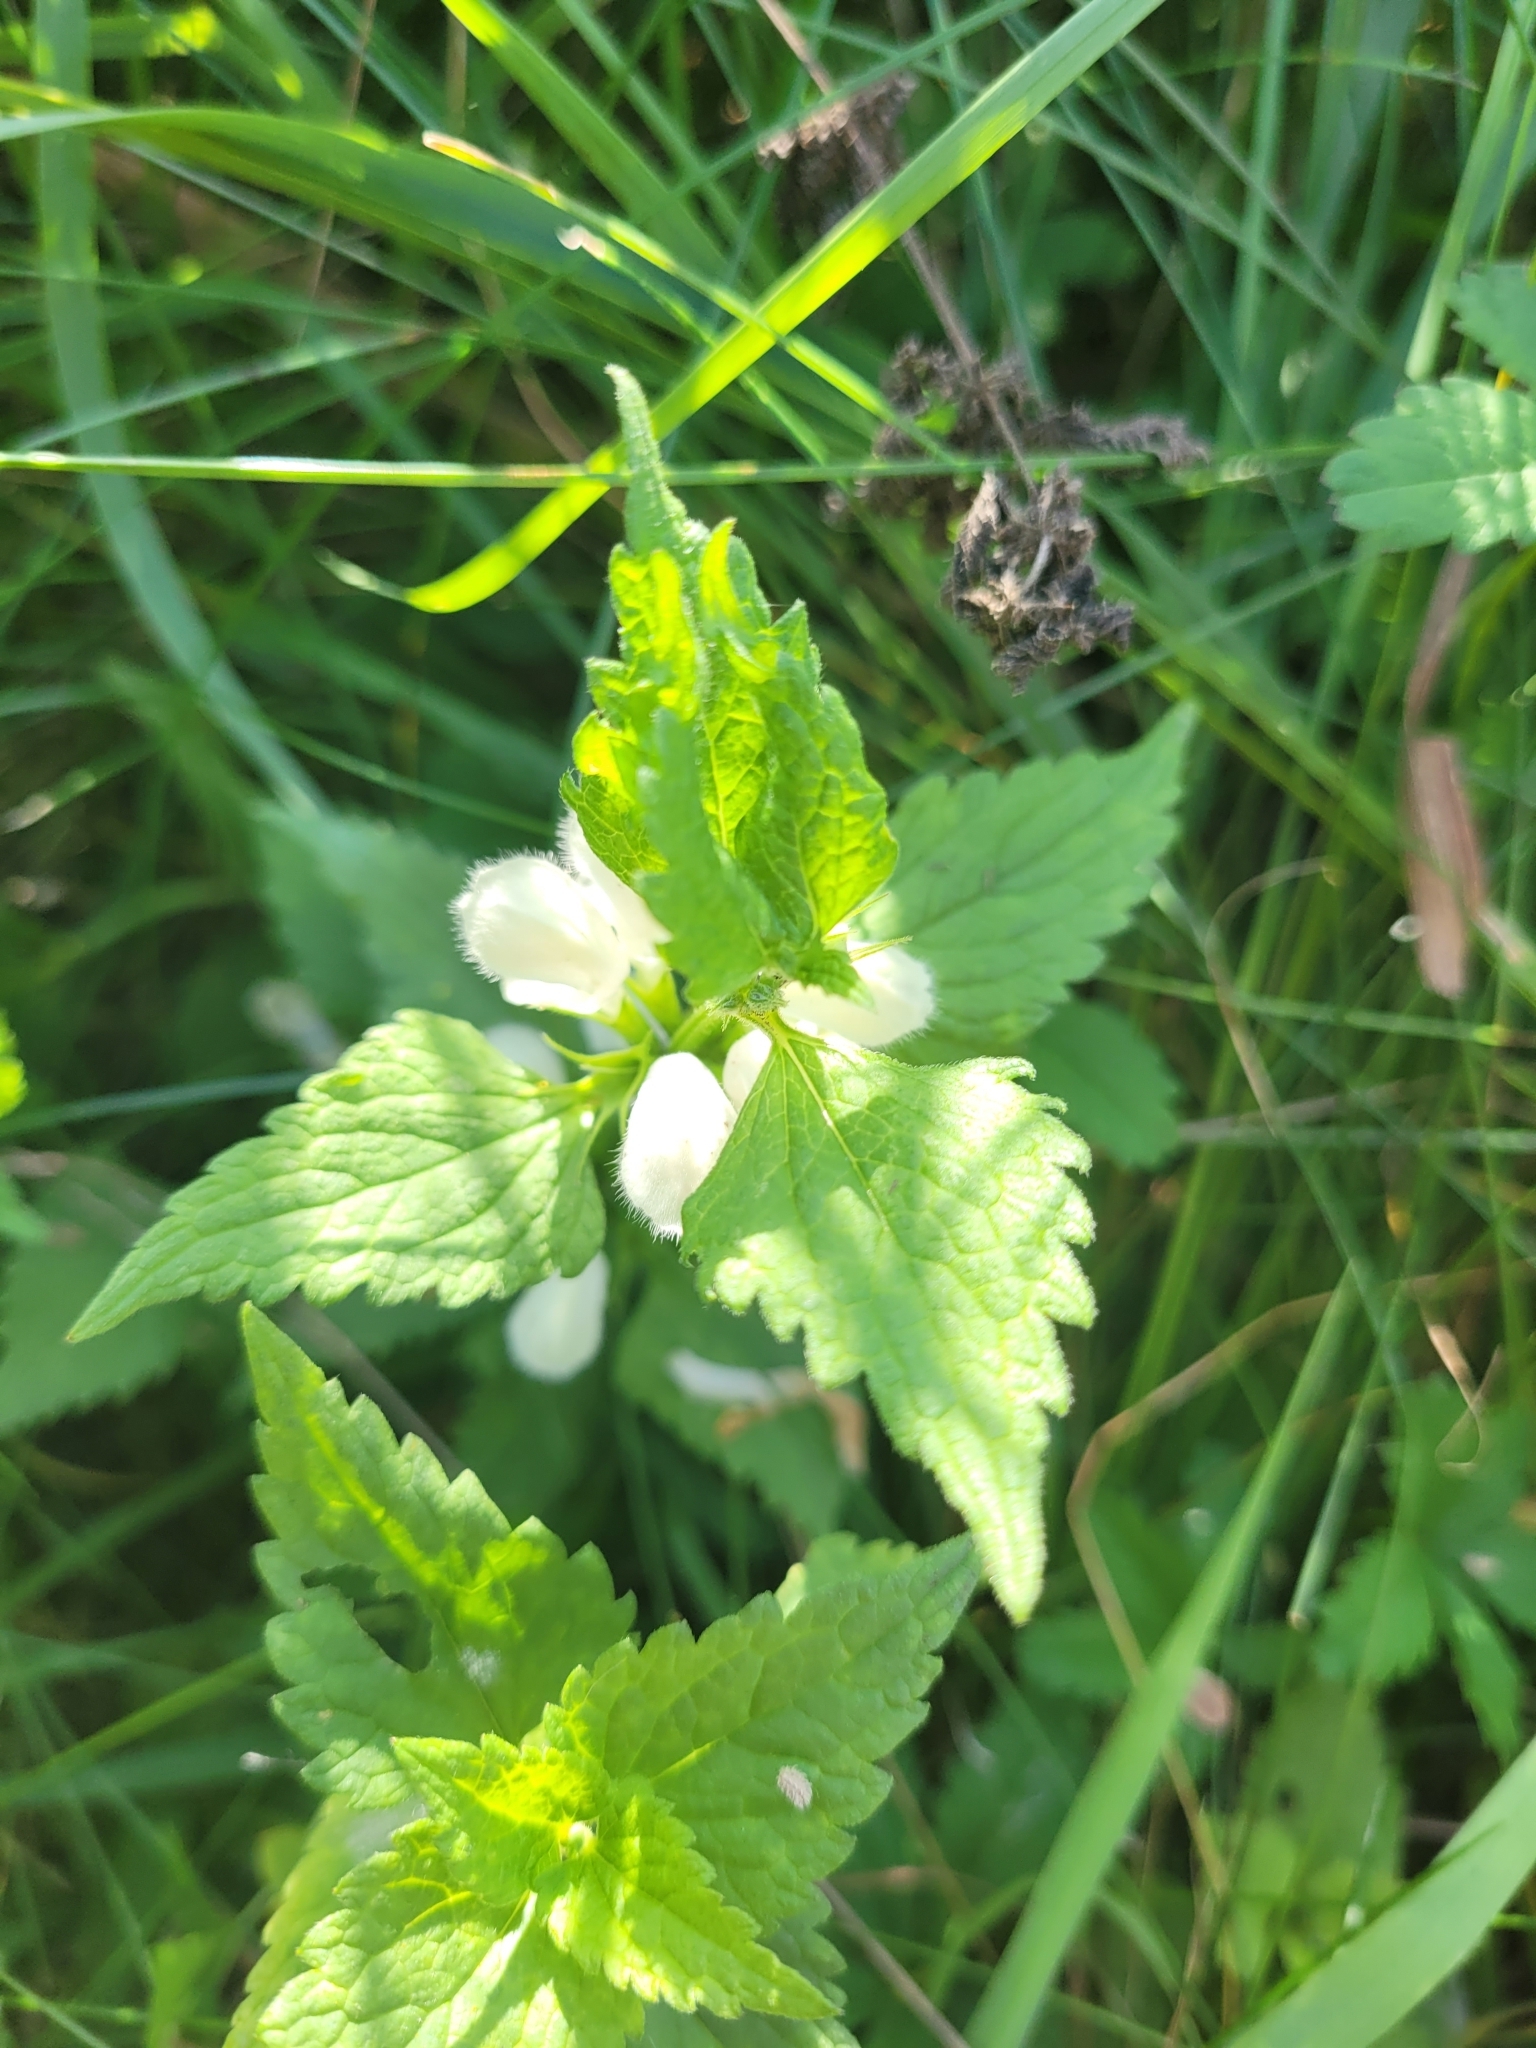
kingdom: Plantae
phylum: Tracheophyta
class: Magnoliopsida
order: Lamiales
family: Lamiaceae
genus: Lamium
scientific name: Lamium album
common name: White dead-nettle
